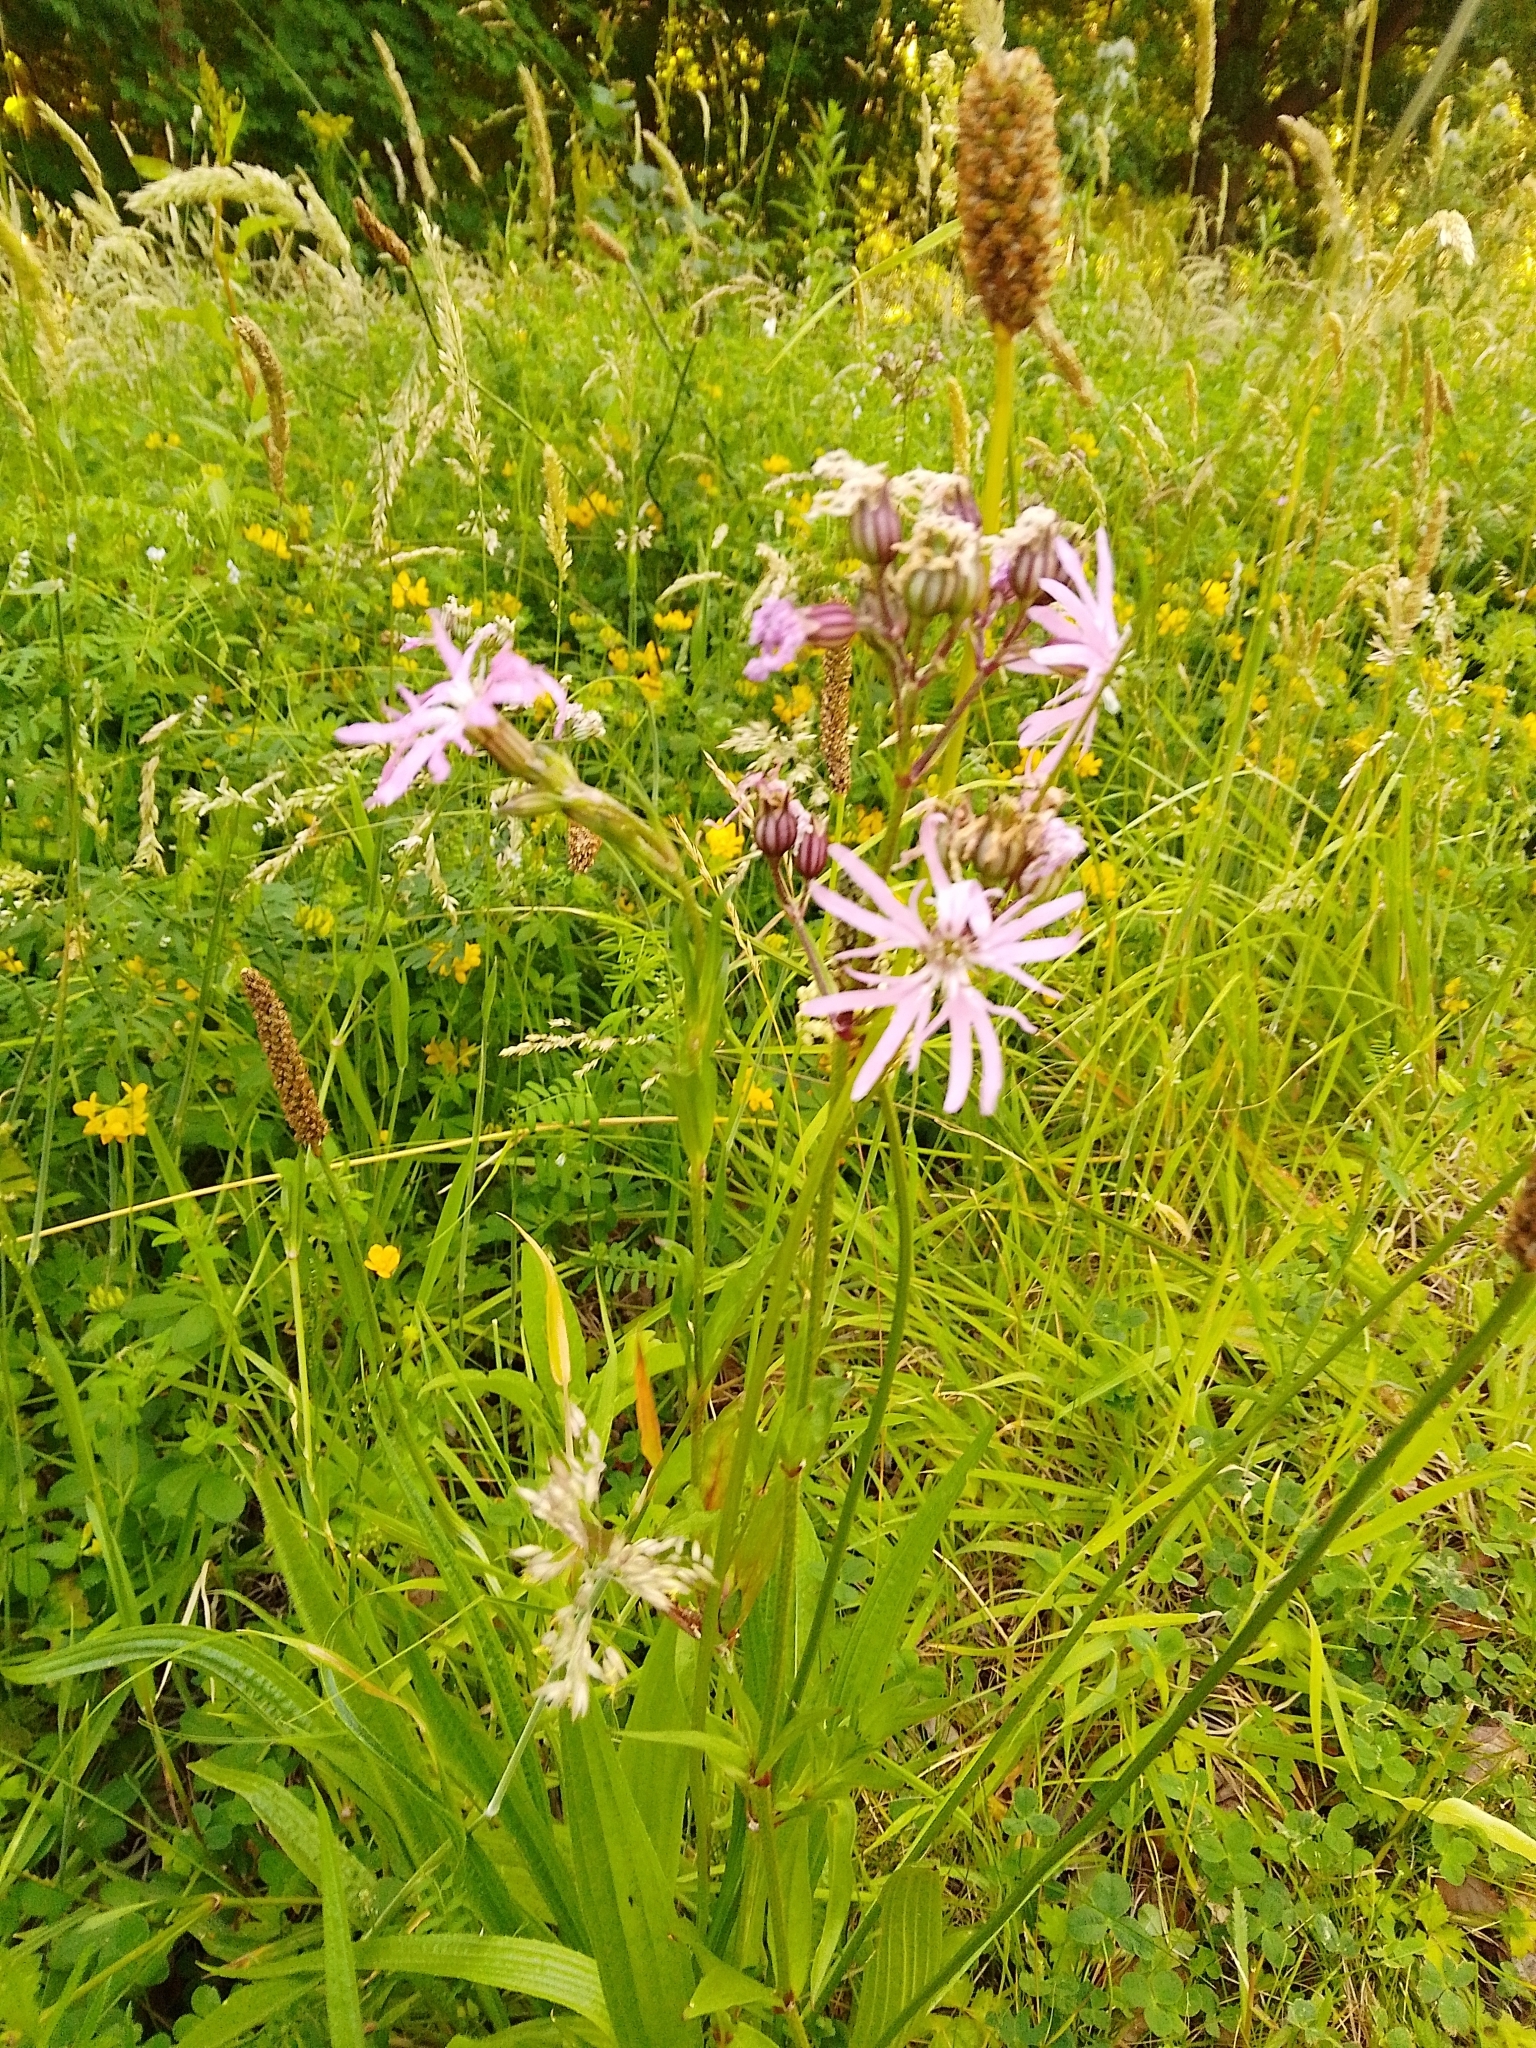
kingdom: Plantae
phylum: Tracheophyta
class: Magnoliopsida
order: Caryophyllales
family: Caryophyllaceae
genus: Silene
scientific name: Silene flos-cuculi
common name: Ragged-robin
